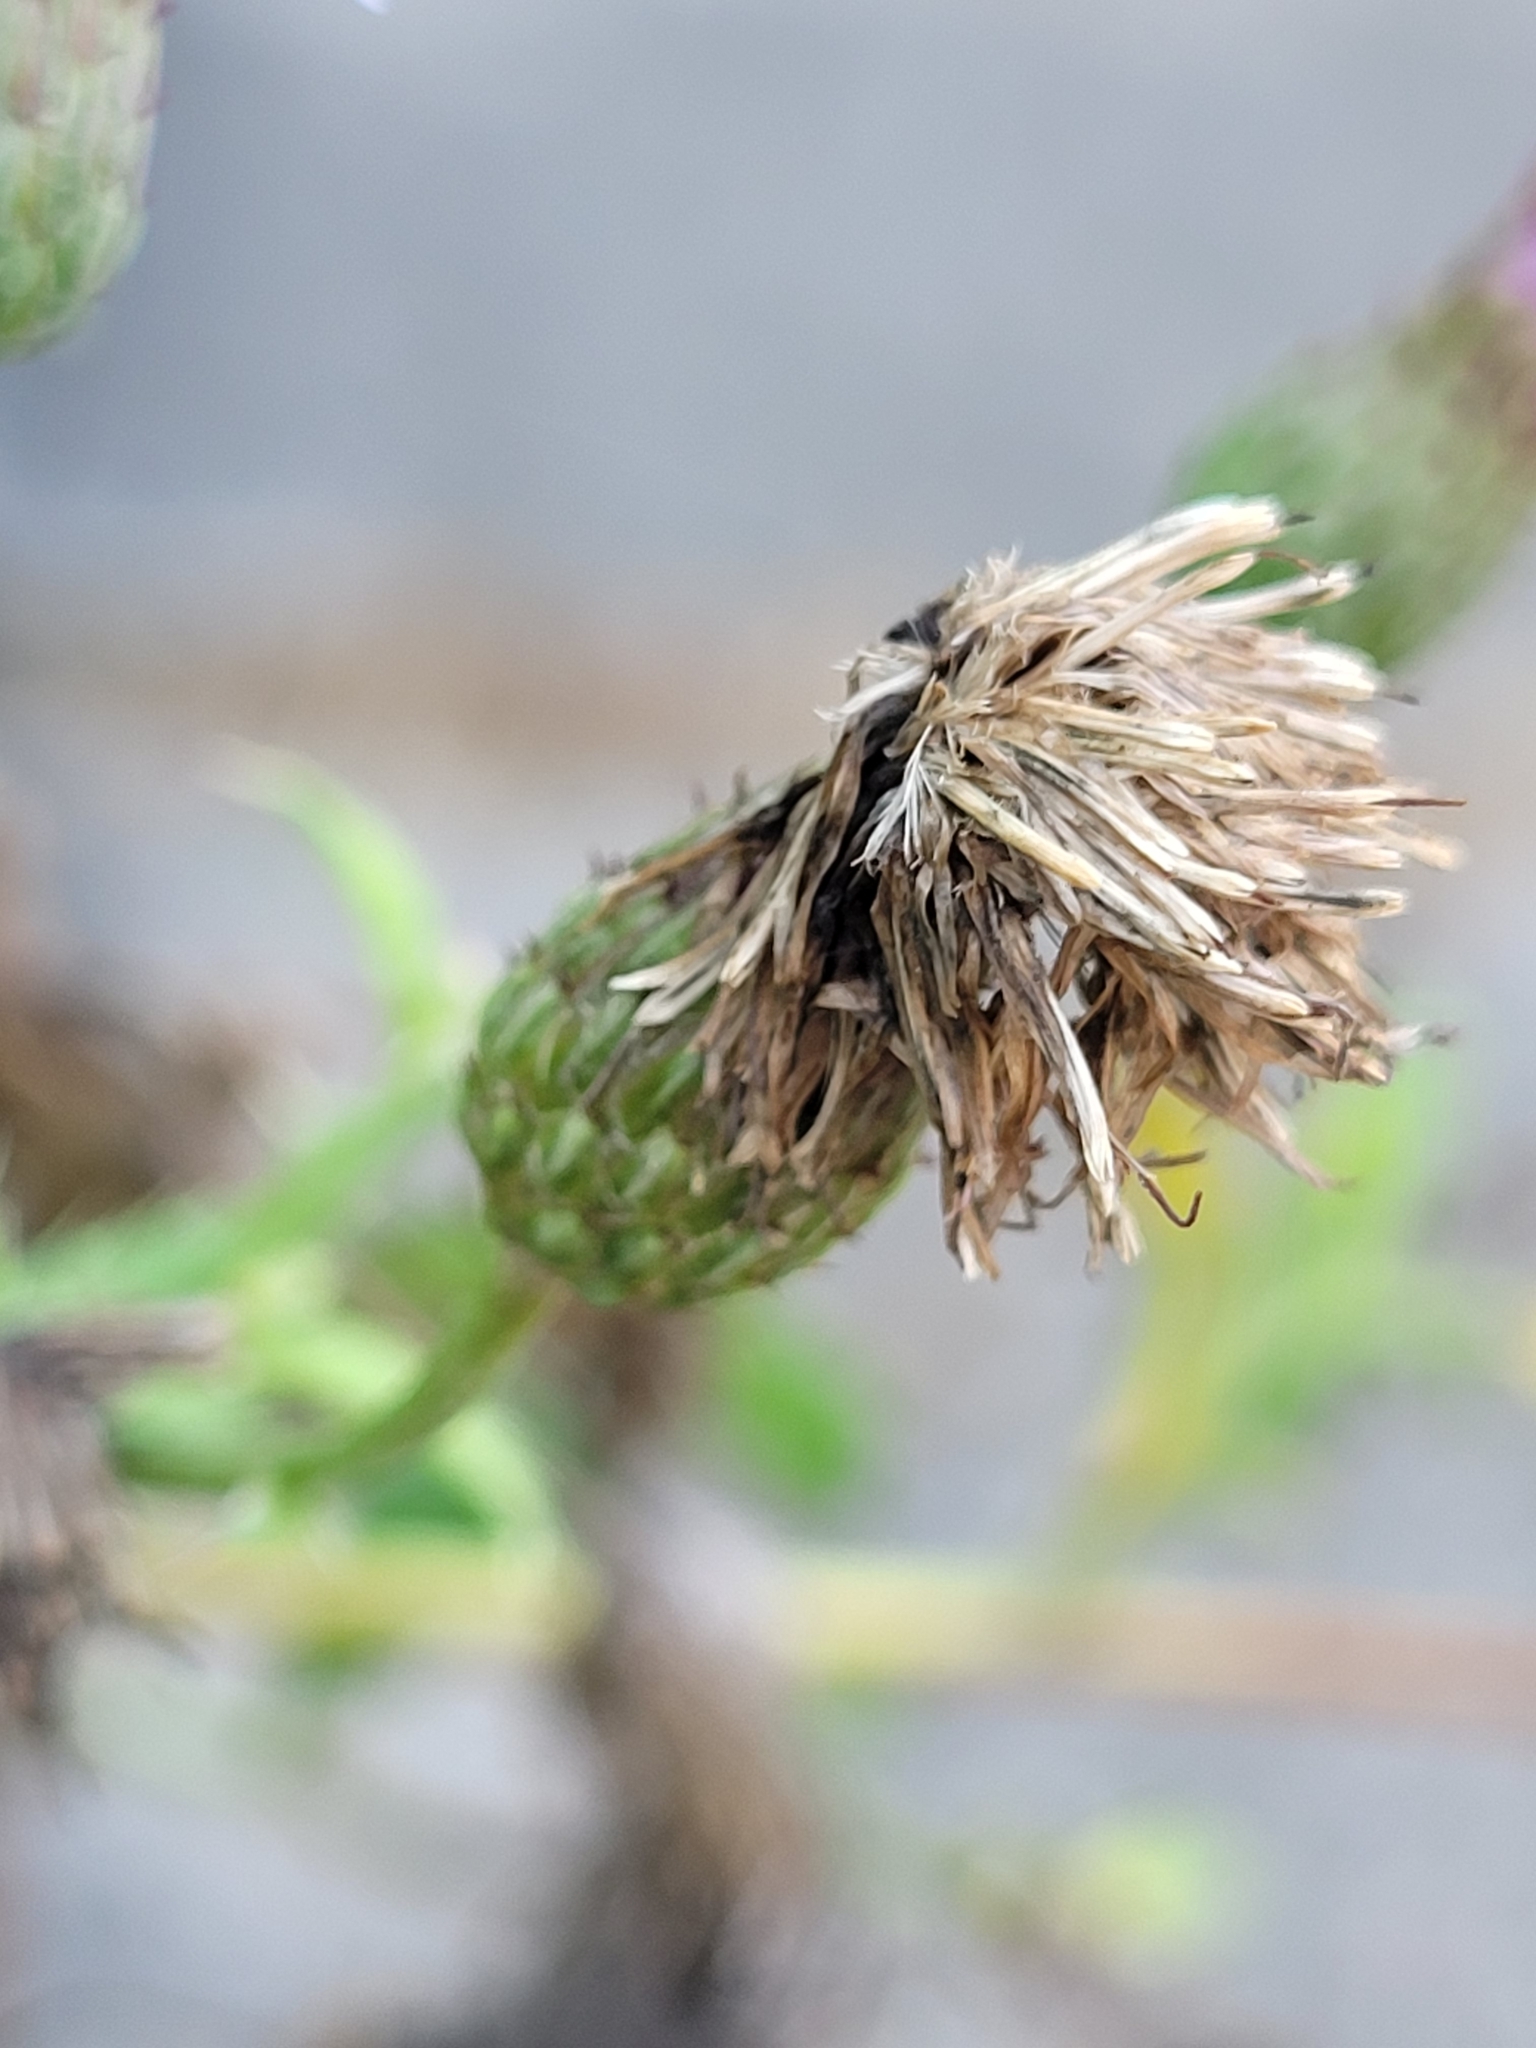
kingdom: Plantae
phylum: Tracheophyta
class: Magnoliopsida
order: Asterales
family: Asteraceae
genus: Cirsium
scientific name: Cirsium arvense
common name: Creeping thistle
